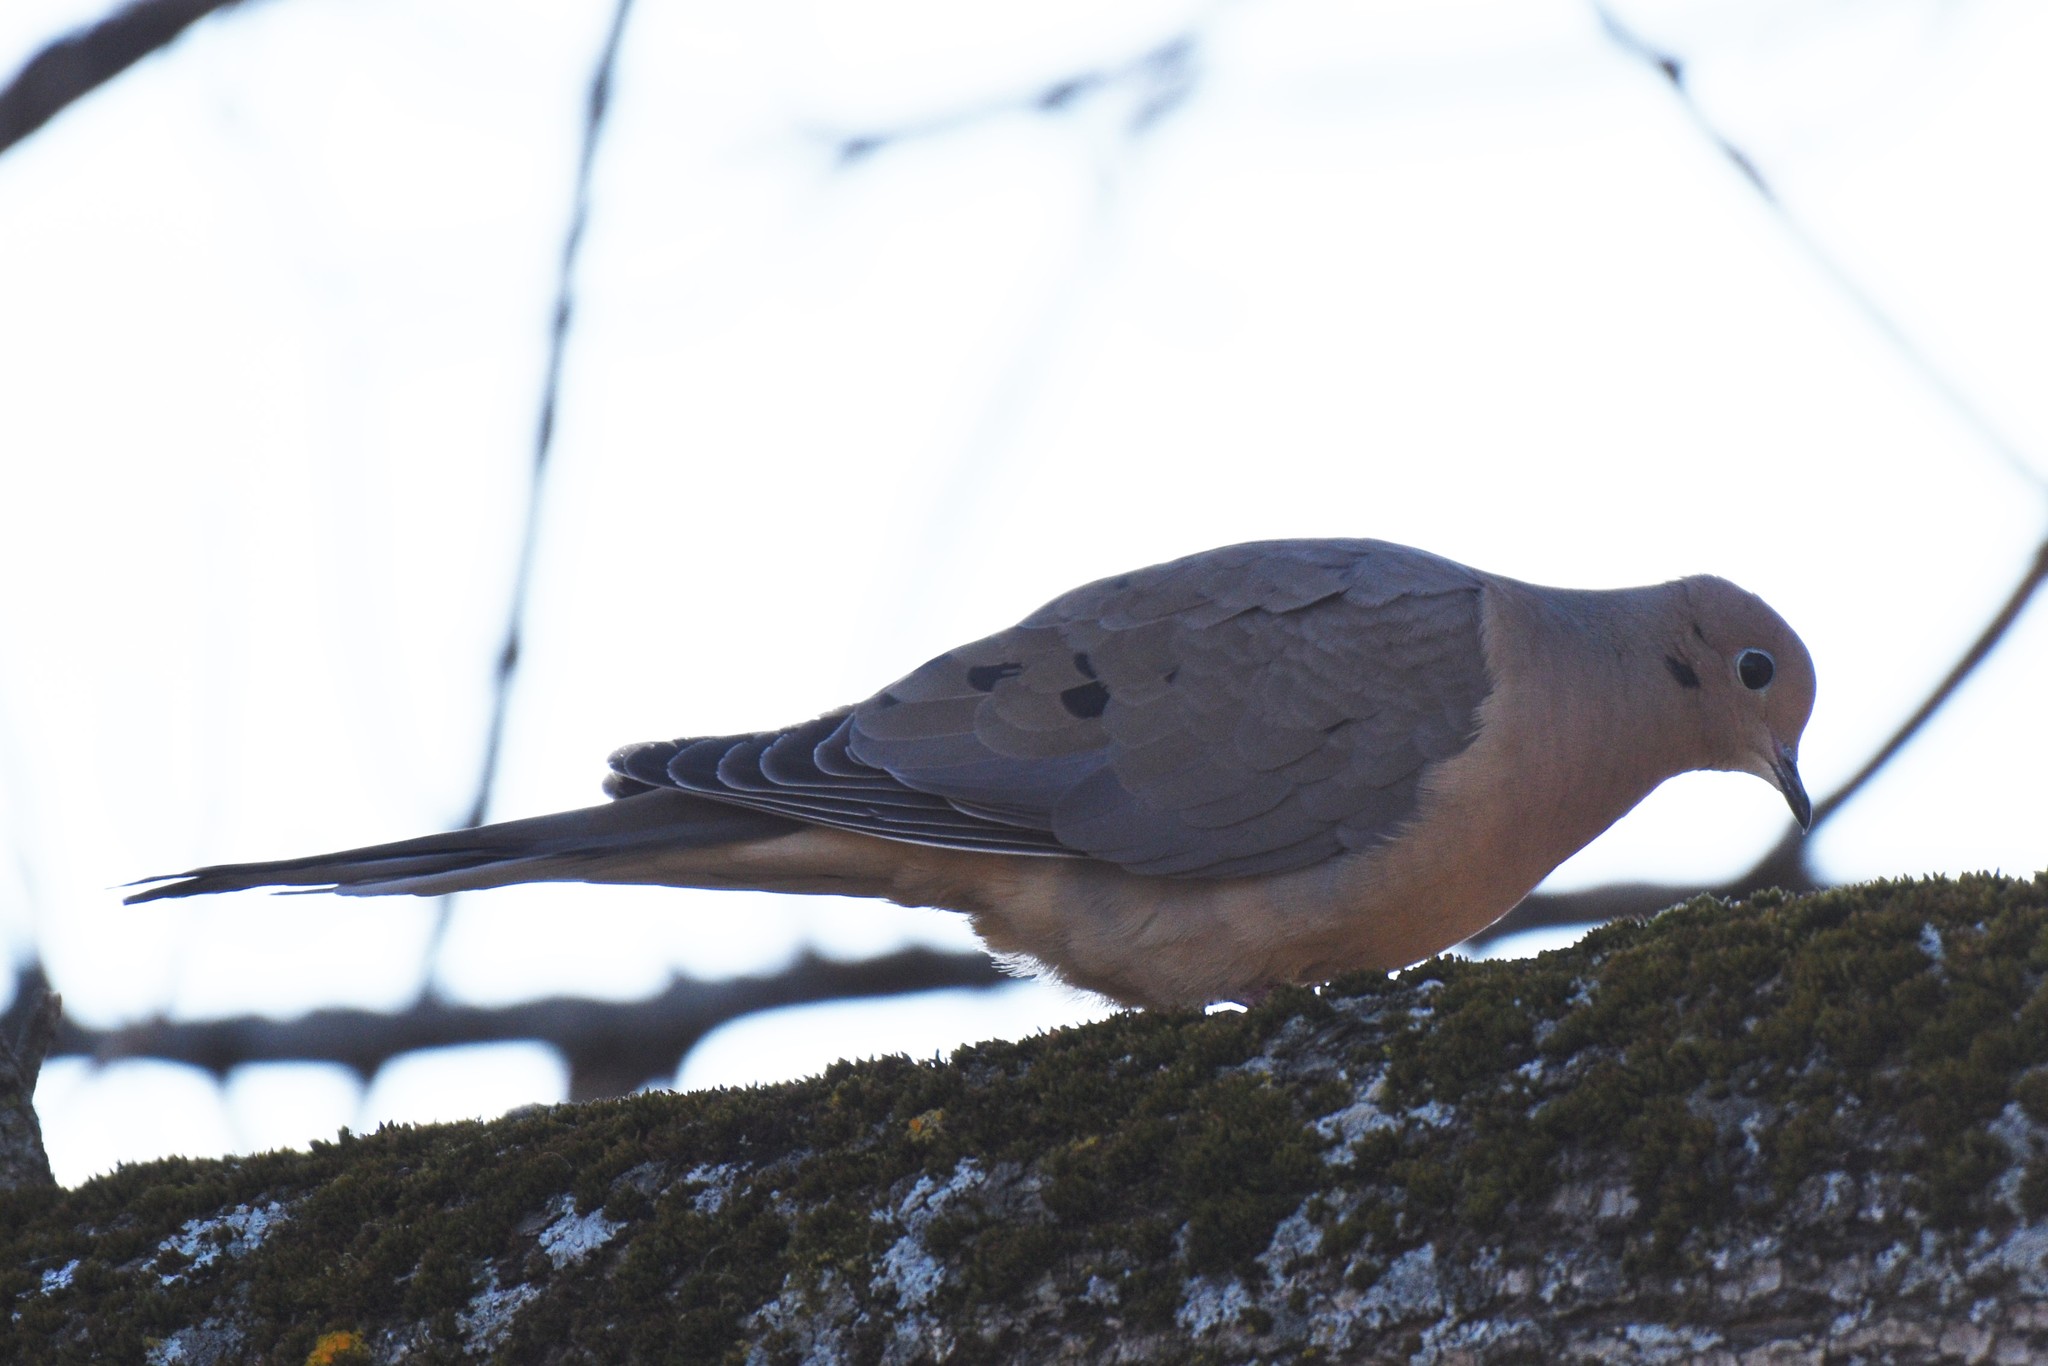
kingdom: Animalia
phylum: Chordata
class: Aves
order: Columbiformes
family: Columbidae
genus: Zenaida
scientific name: Zenaida macroura
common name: Mourning dove
